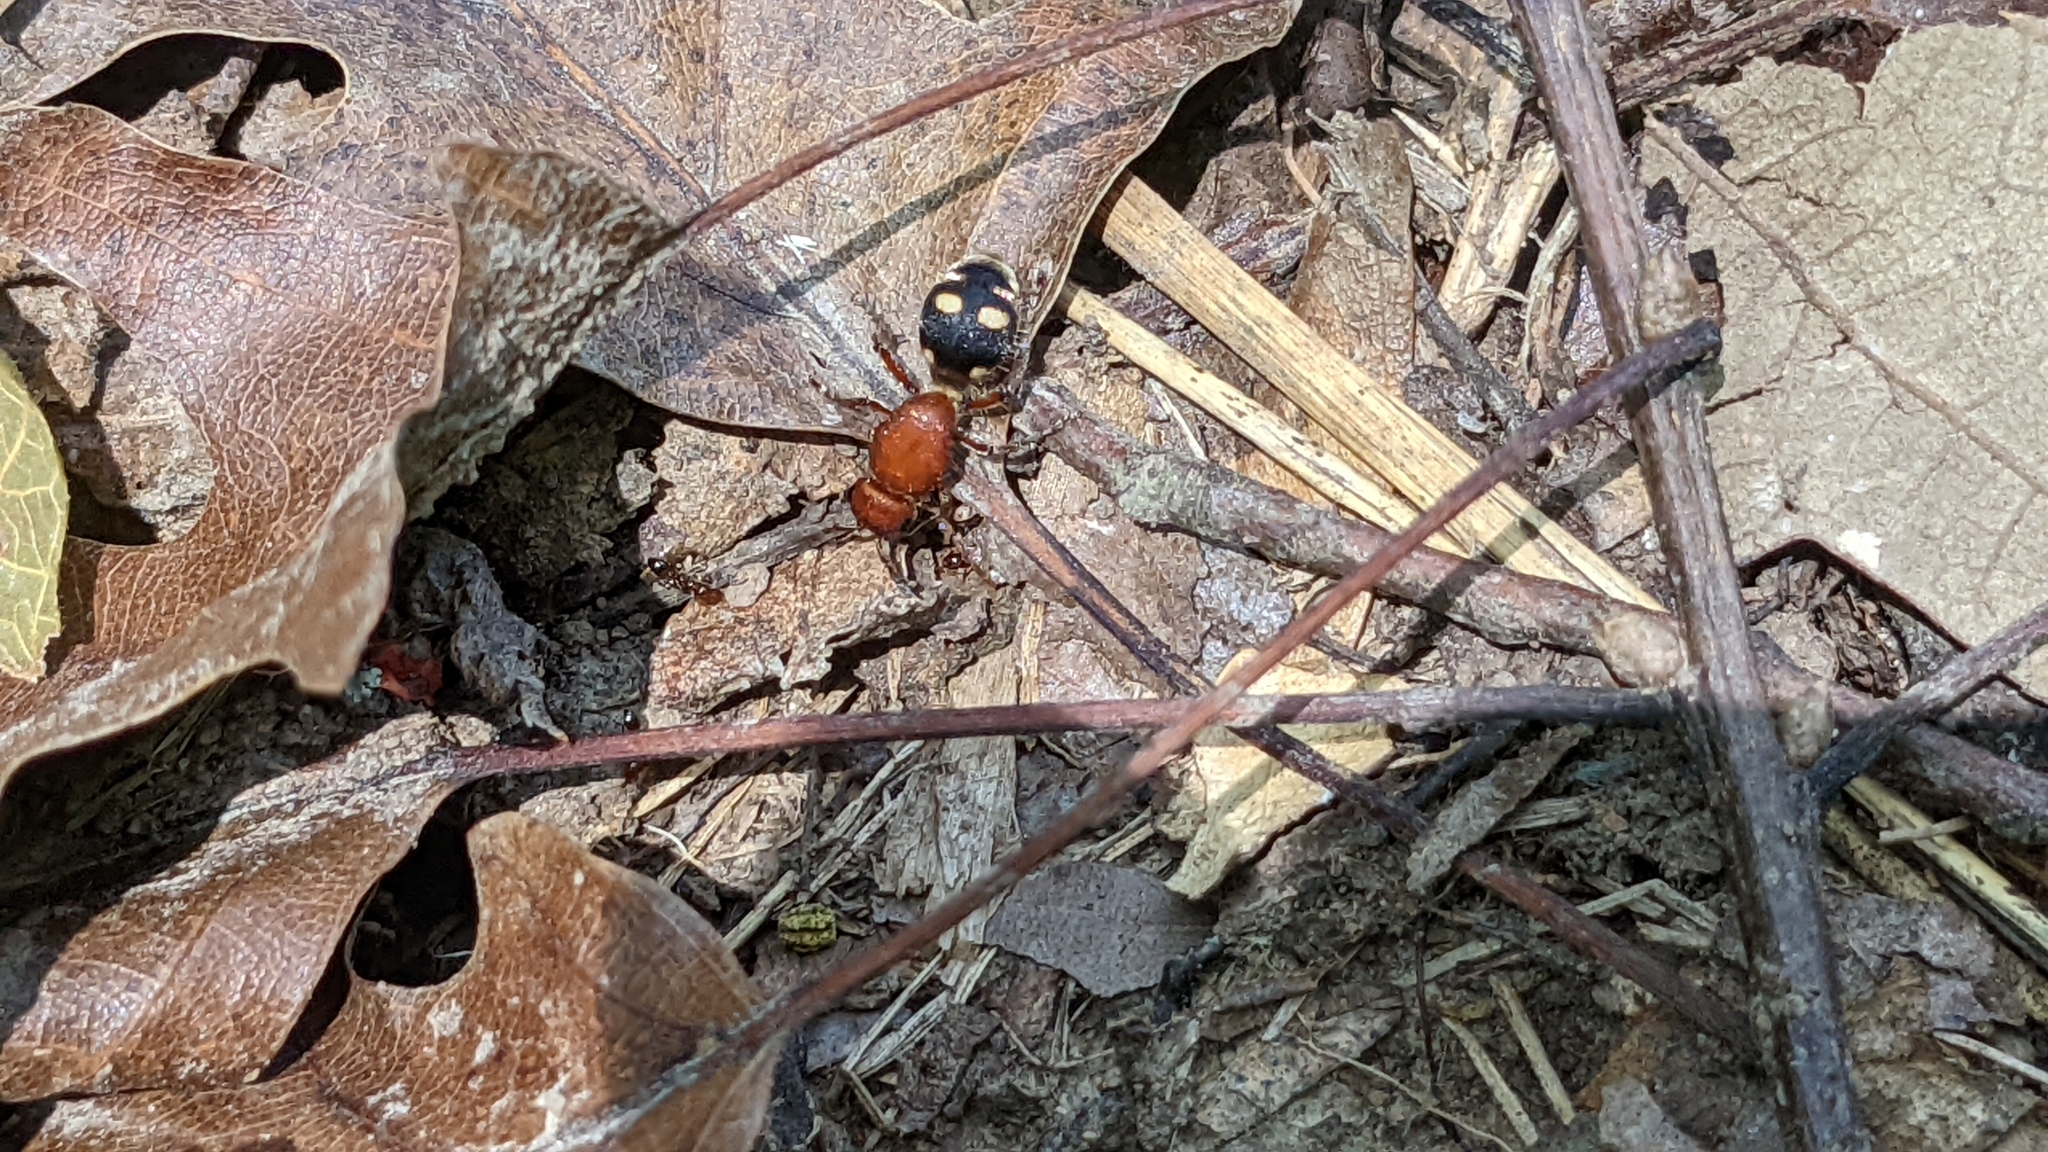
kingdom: Animalia
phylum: Arthropoda
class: Insecta
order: Hymenoptera
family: Mutillidae
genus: Dasymutilla
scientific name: Dasymutilla
